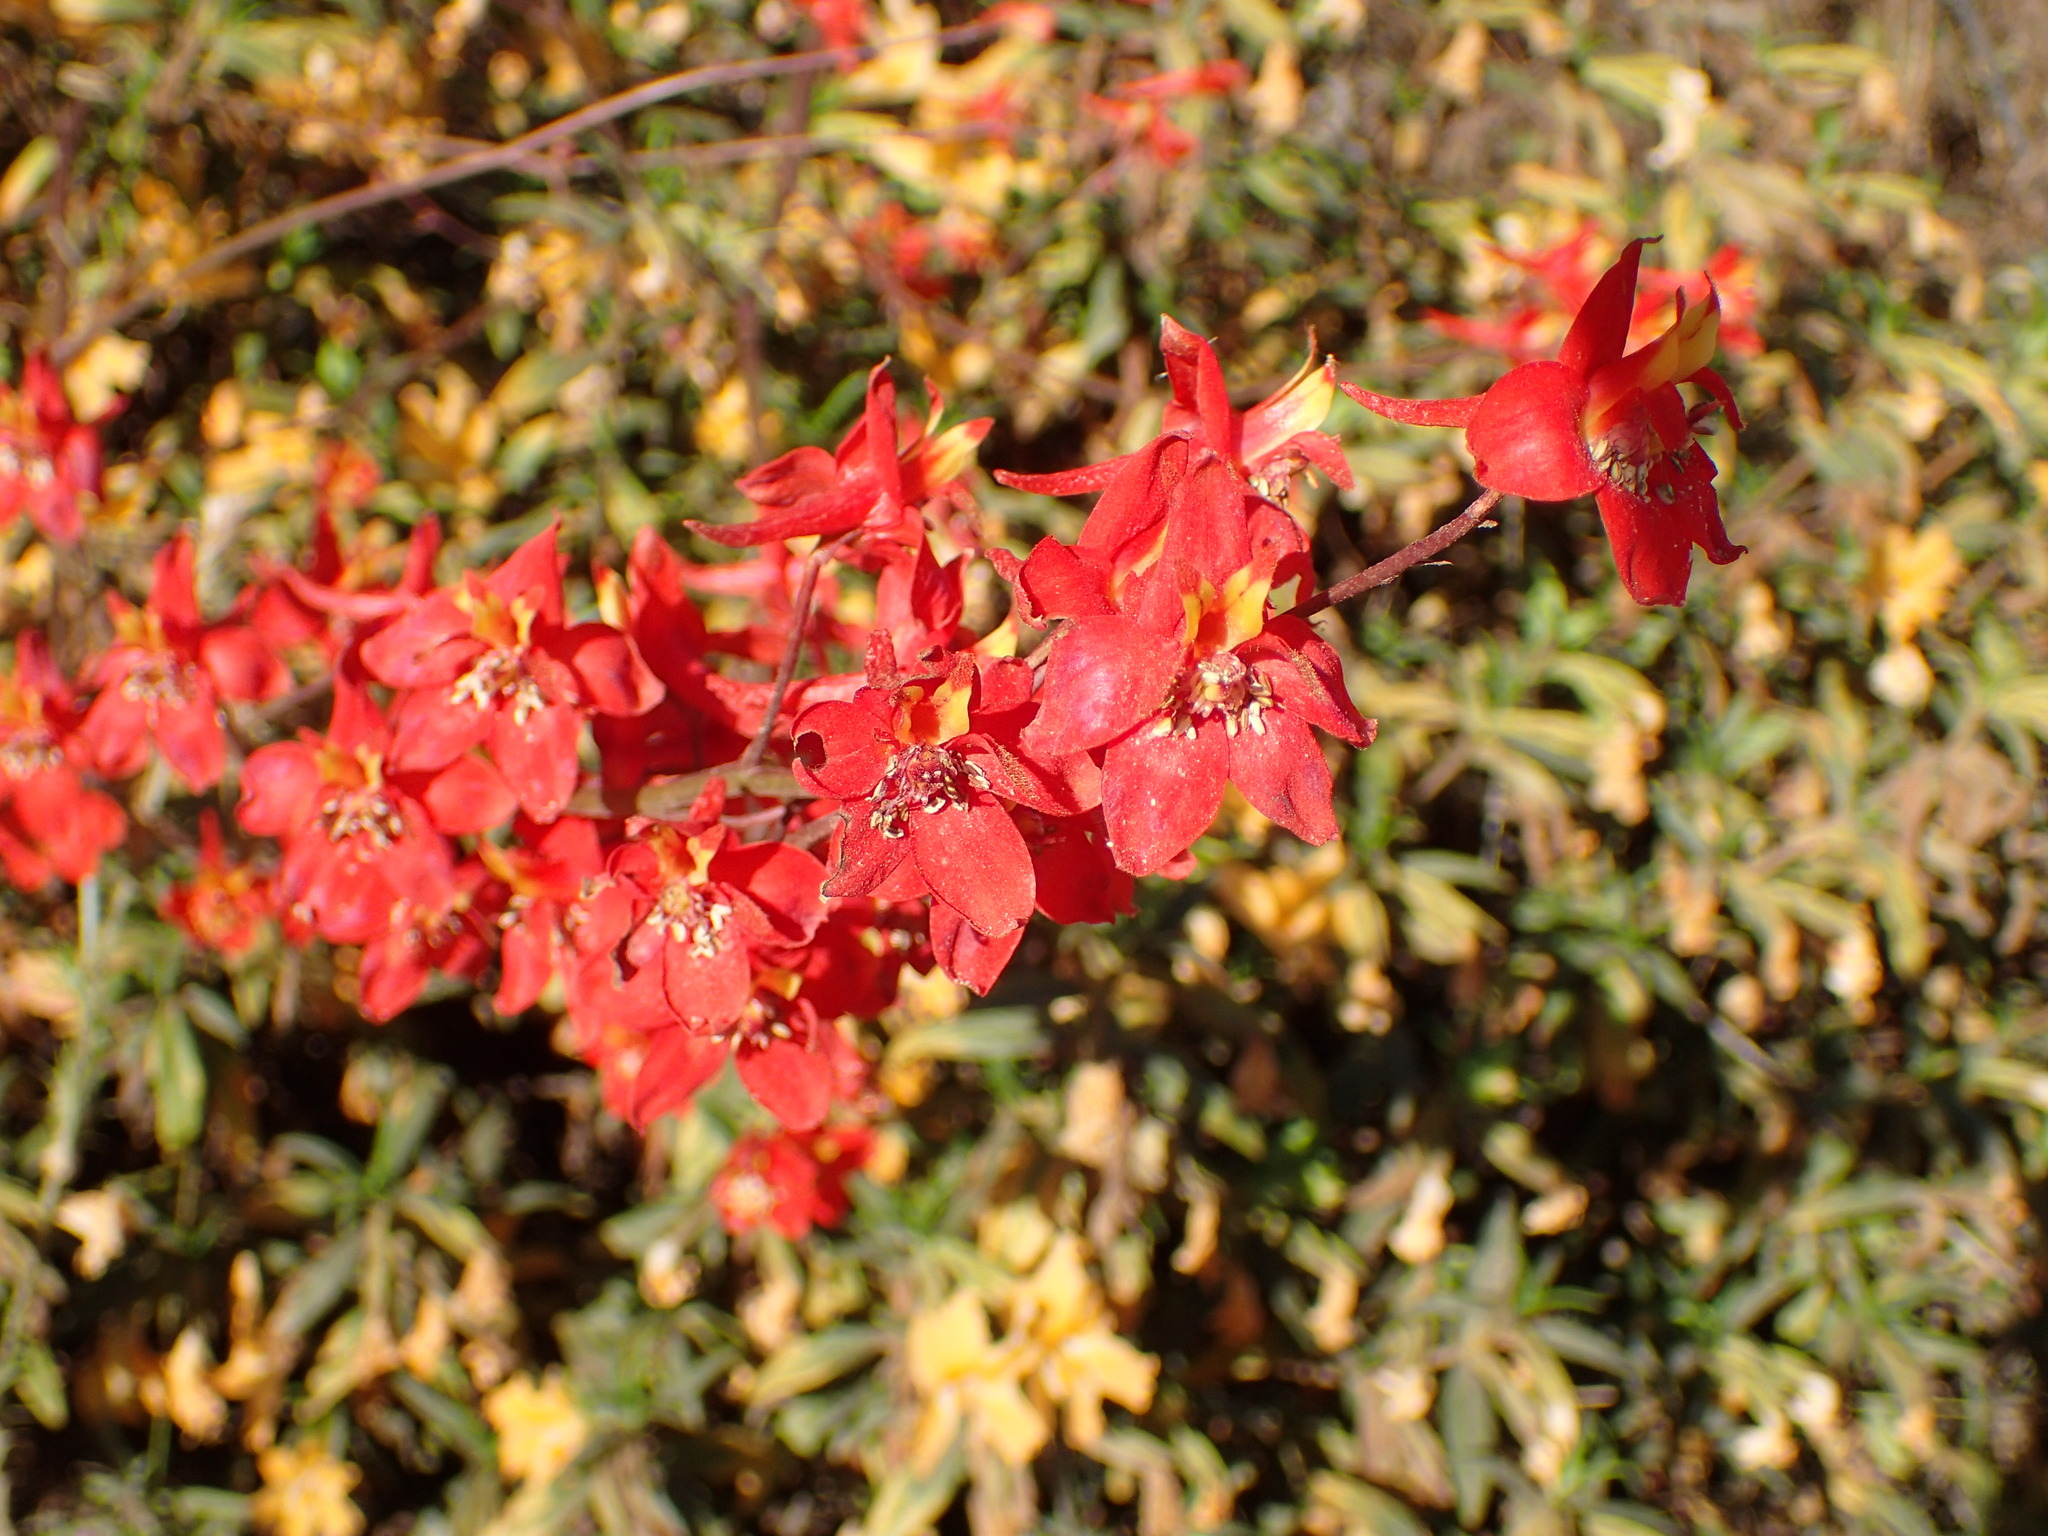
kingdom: Plantae
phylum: Tracheophyta
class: Magnoliopsida
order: Ranunculales
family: Ranunculaceae
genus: Delphinium
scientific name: Delphinium cardinale
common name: Scarlet larkspur
